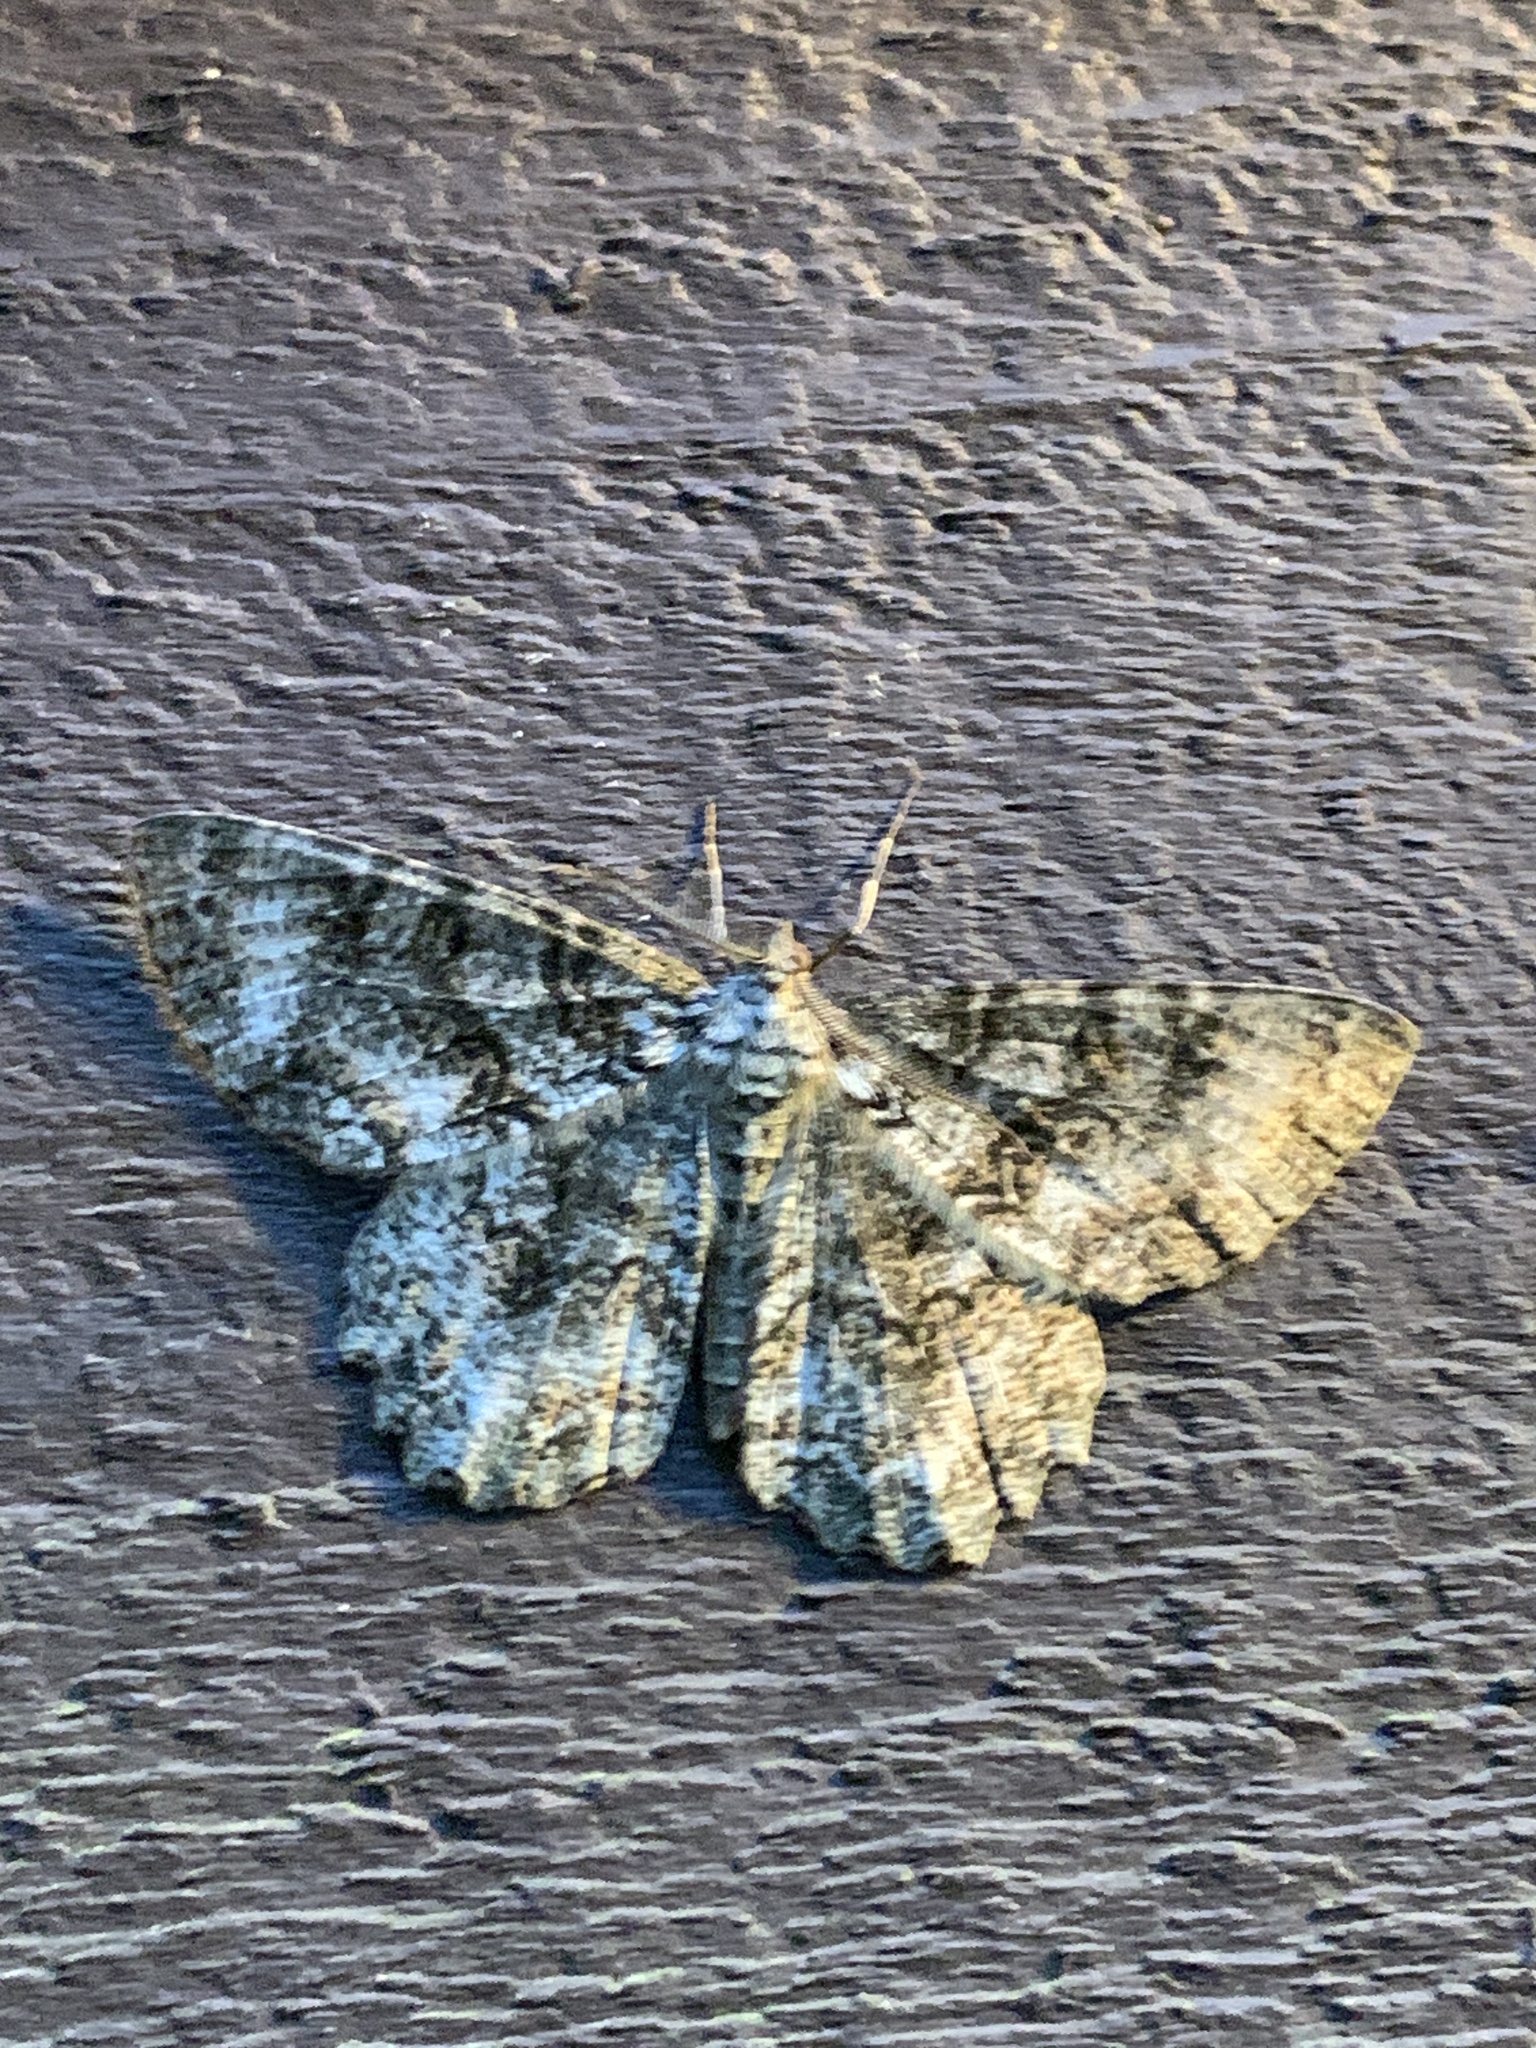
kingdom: Animalia
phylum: Arthropoda
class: Insecta
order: Lepidoptera
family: Geometridae
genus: Epimecis
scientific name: Epimecis hortaria
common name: Tulip-tree beauty
